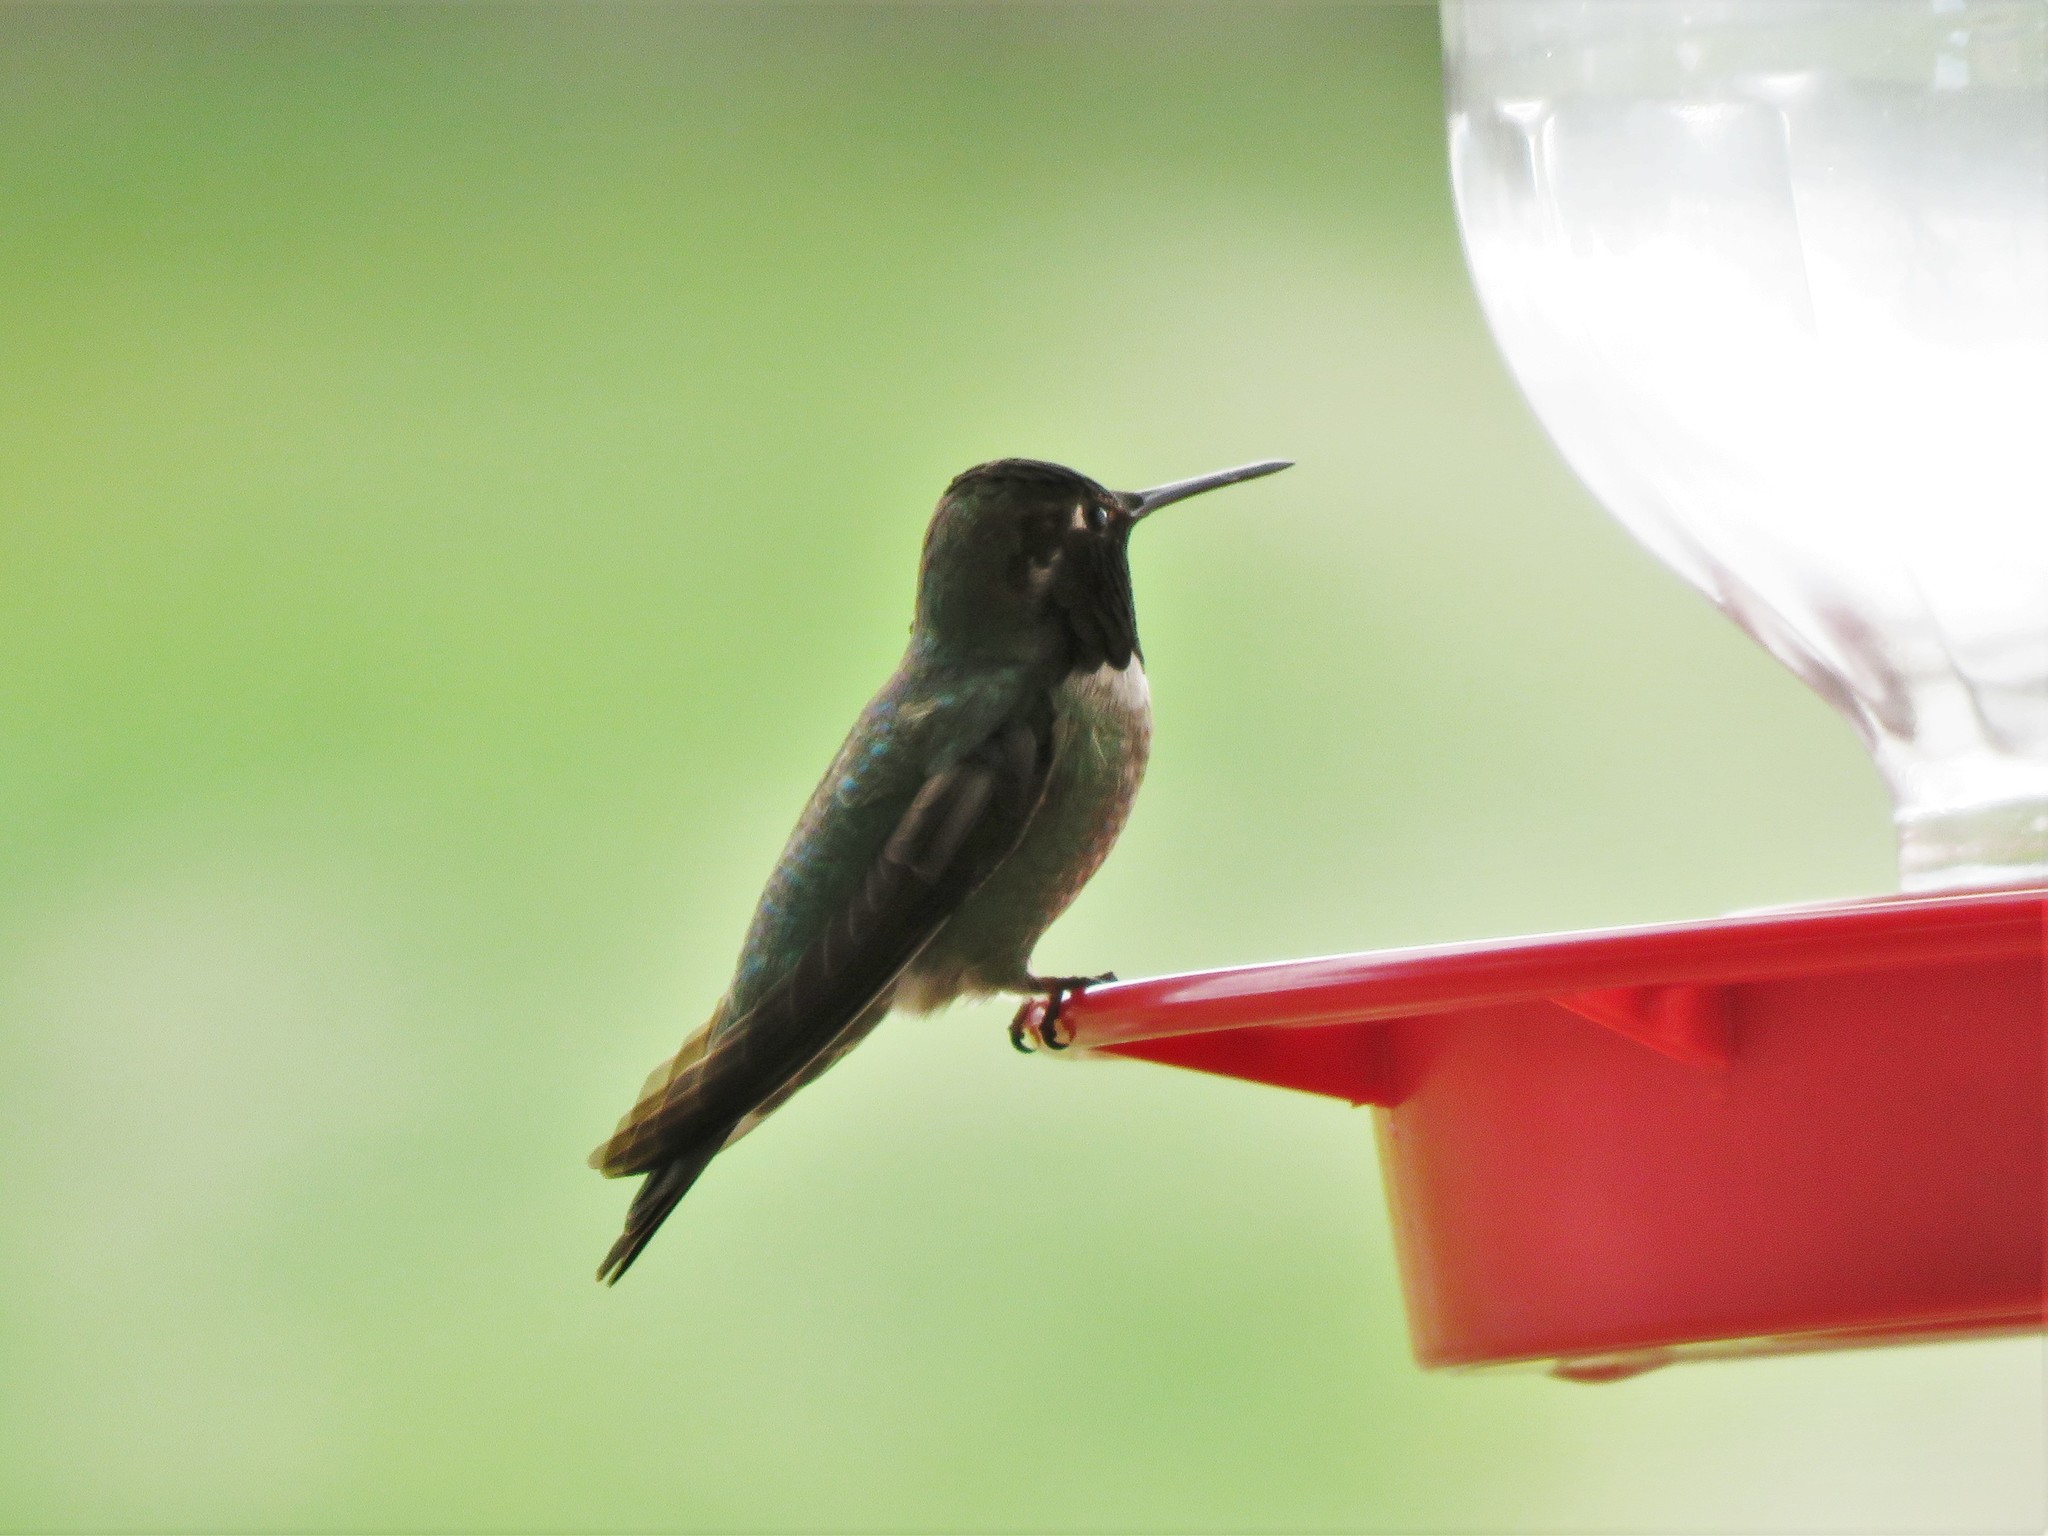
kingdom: Animalia
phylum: Chordata
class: Aves
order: Apodiformes
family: Trochilidae
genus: Calypte
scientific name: Calypte anna
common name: Anna's hummingbird
